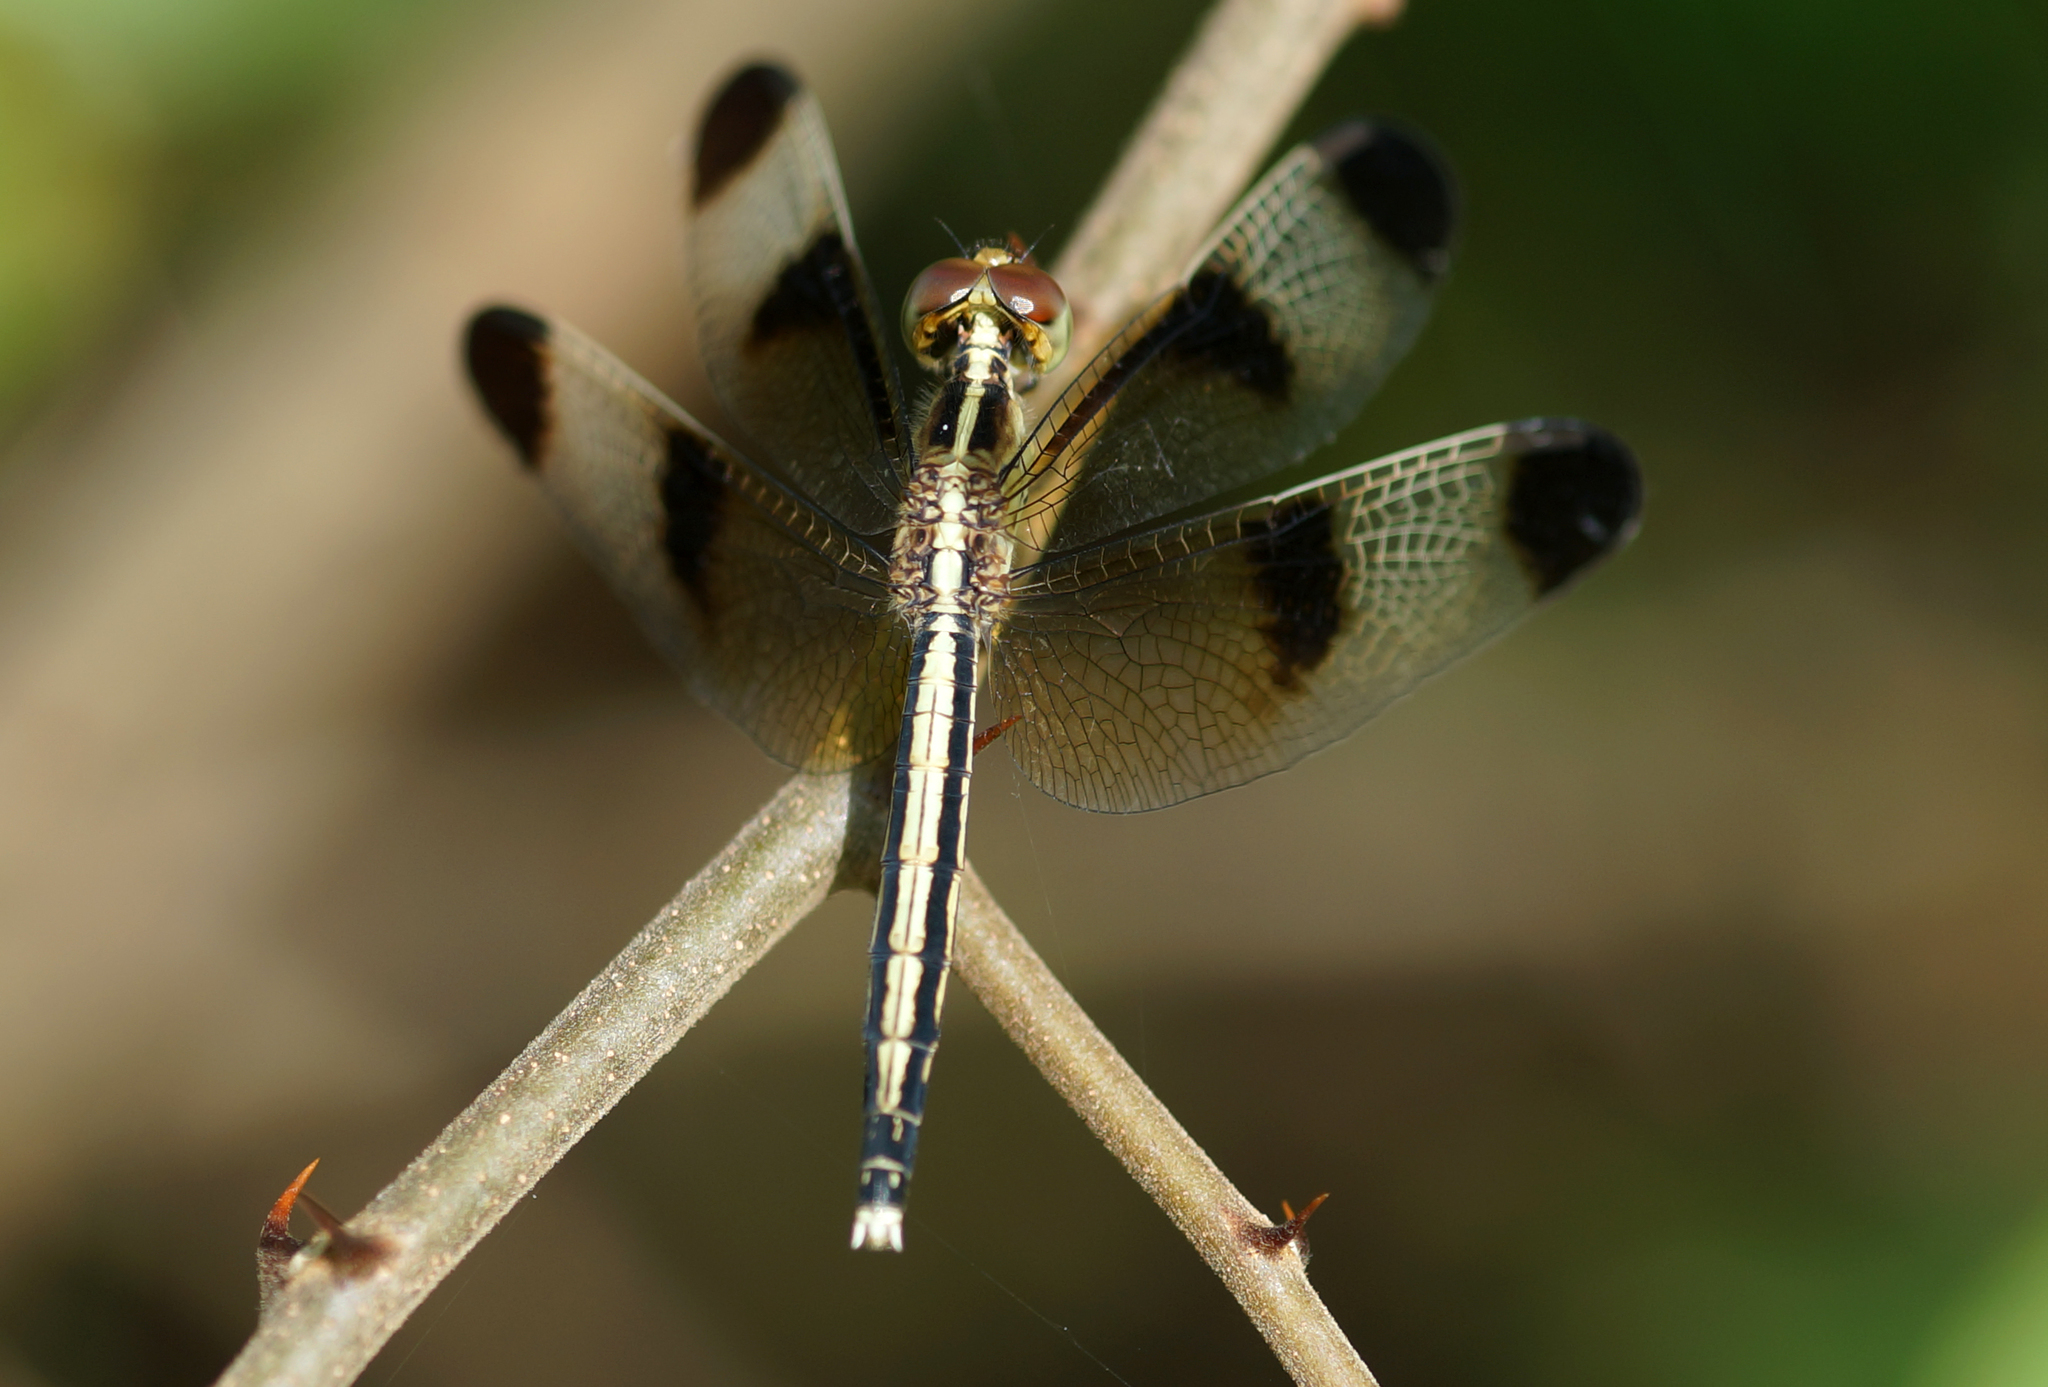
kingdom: Animalia
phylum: Arthropoda
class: Insecta
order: Odonata
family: Libellulidae
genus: Neurothemis
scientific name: Neurothemis tullia
